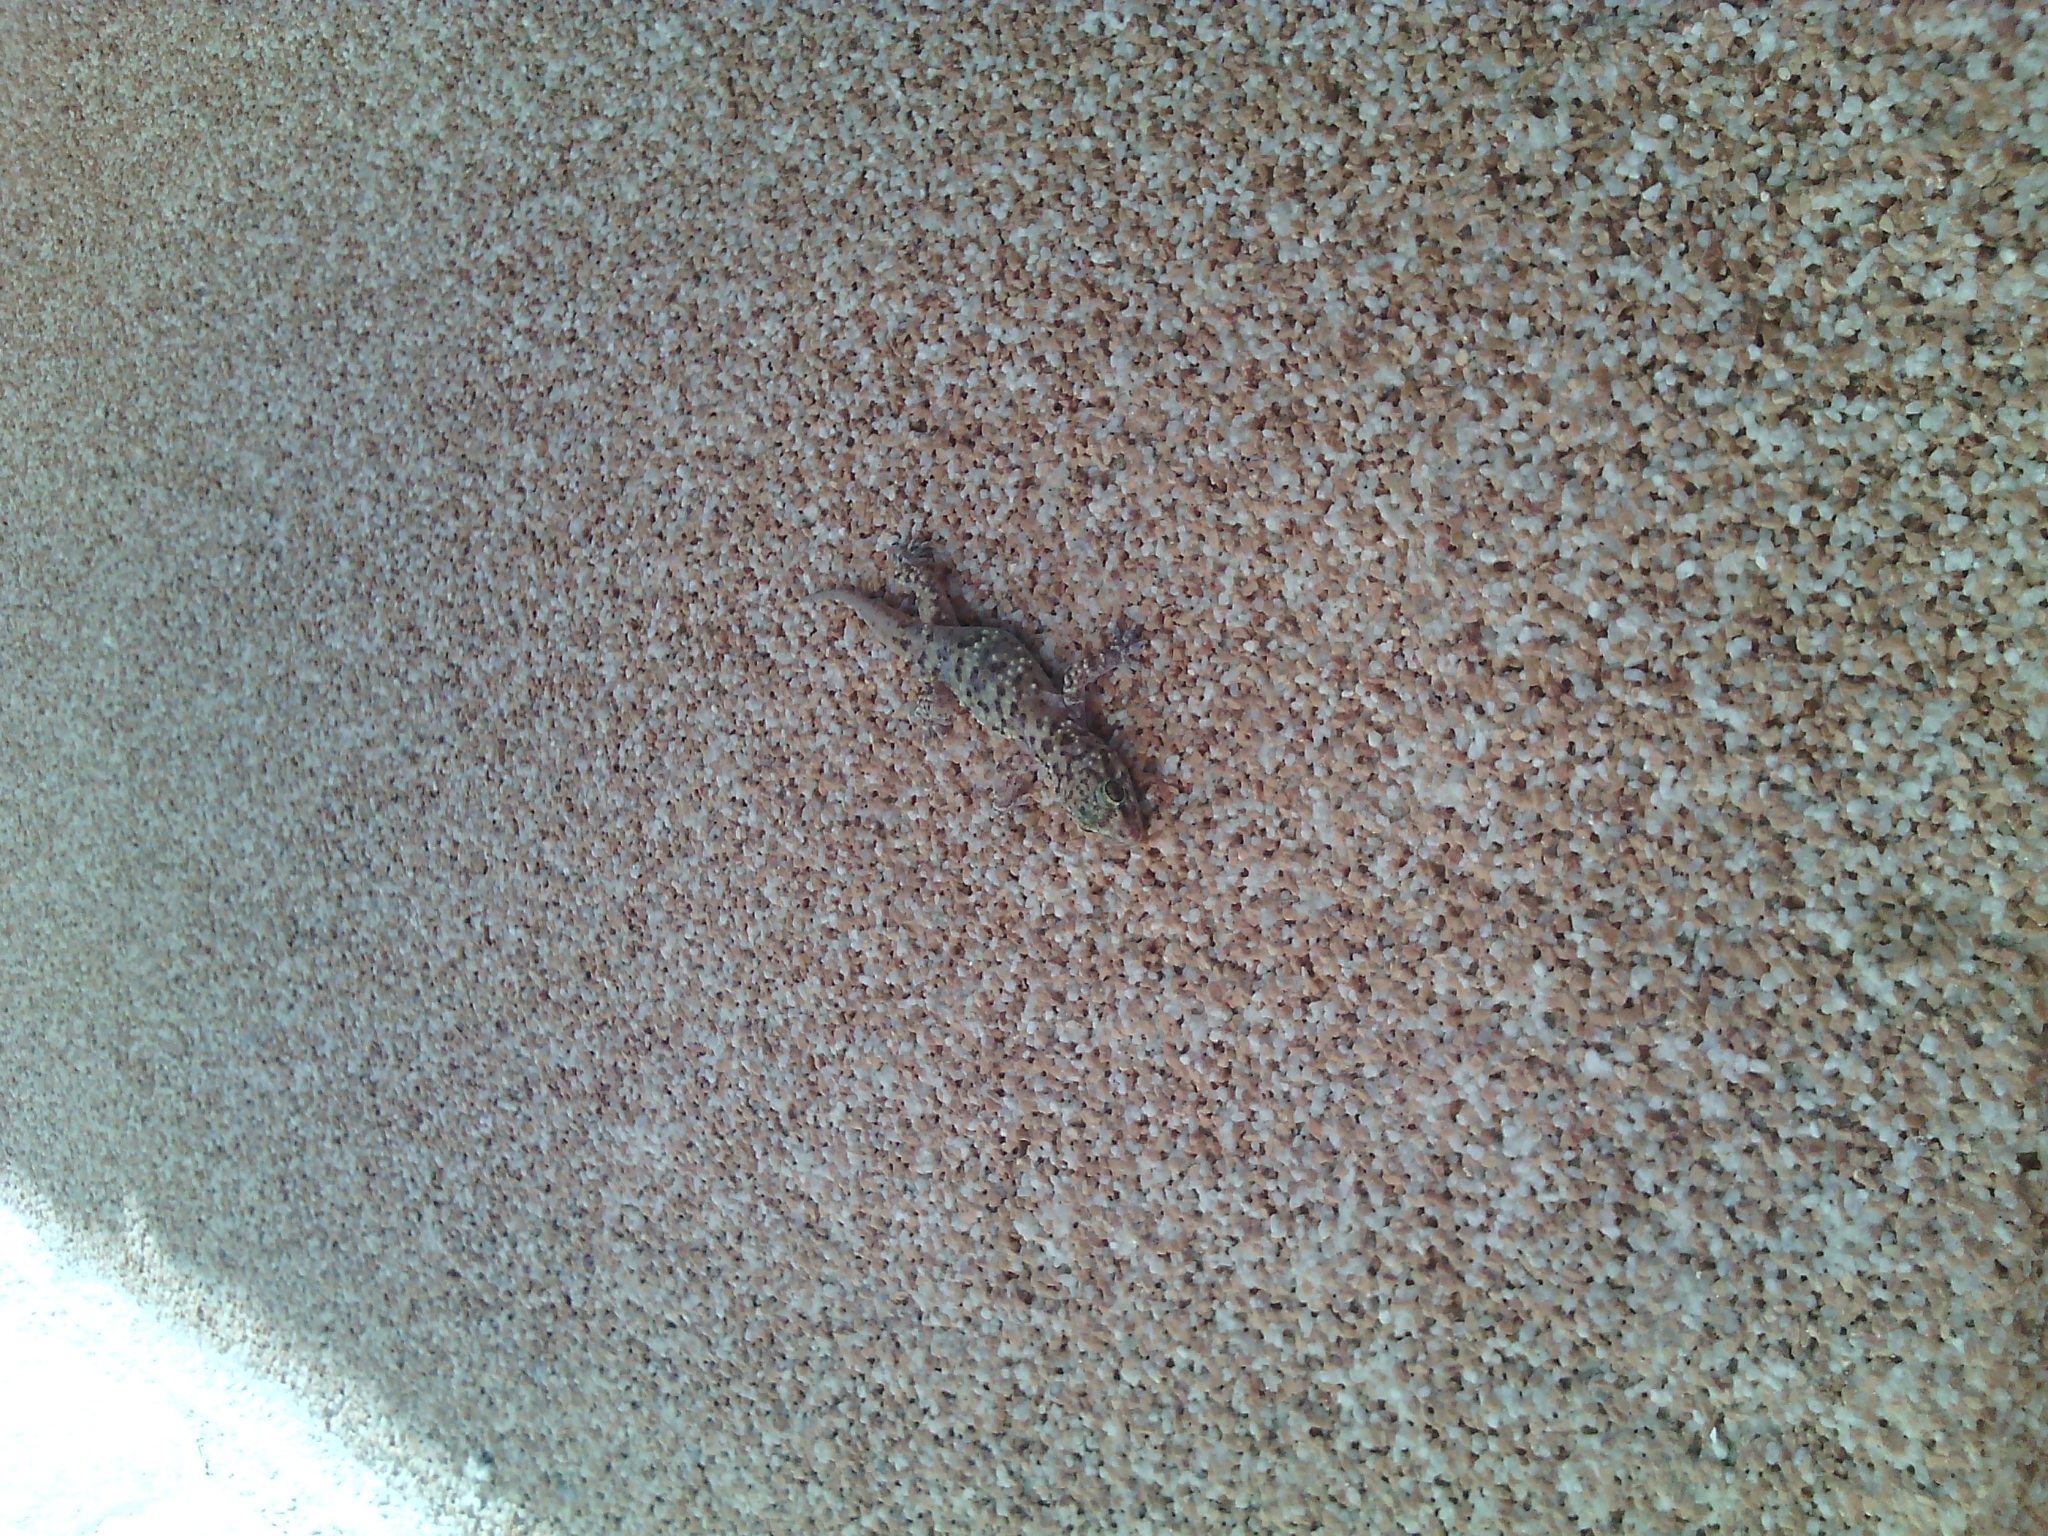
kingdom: Animalia
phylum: Chordata
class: Squamata
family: Gekkonidae
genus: Hemidactylus
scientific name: Hemidactylus turcicus
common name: Turkish gecko
